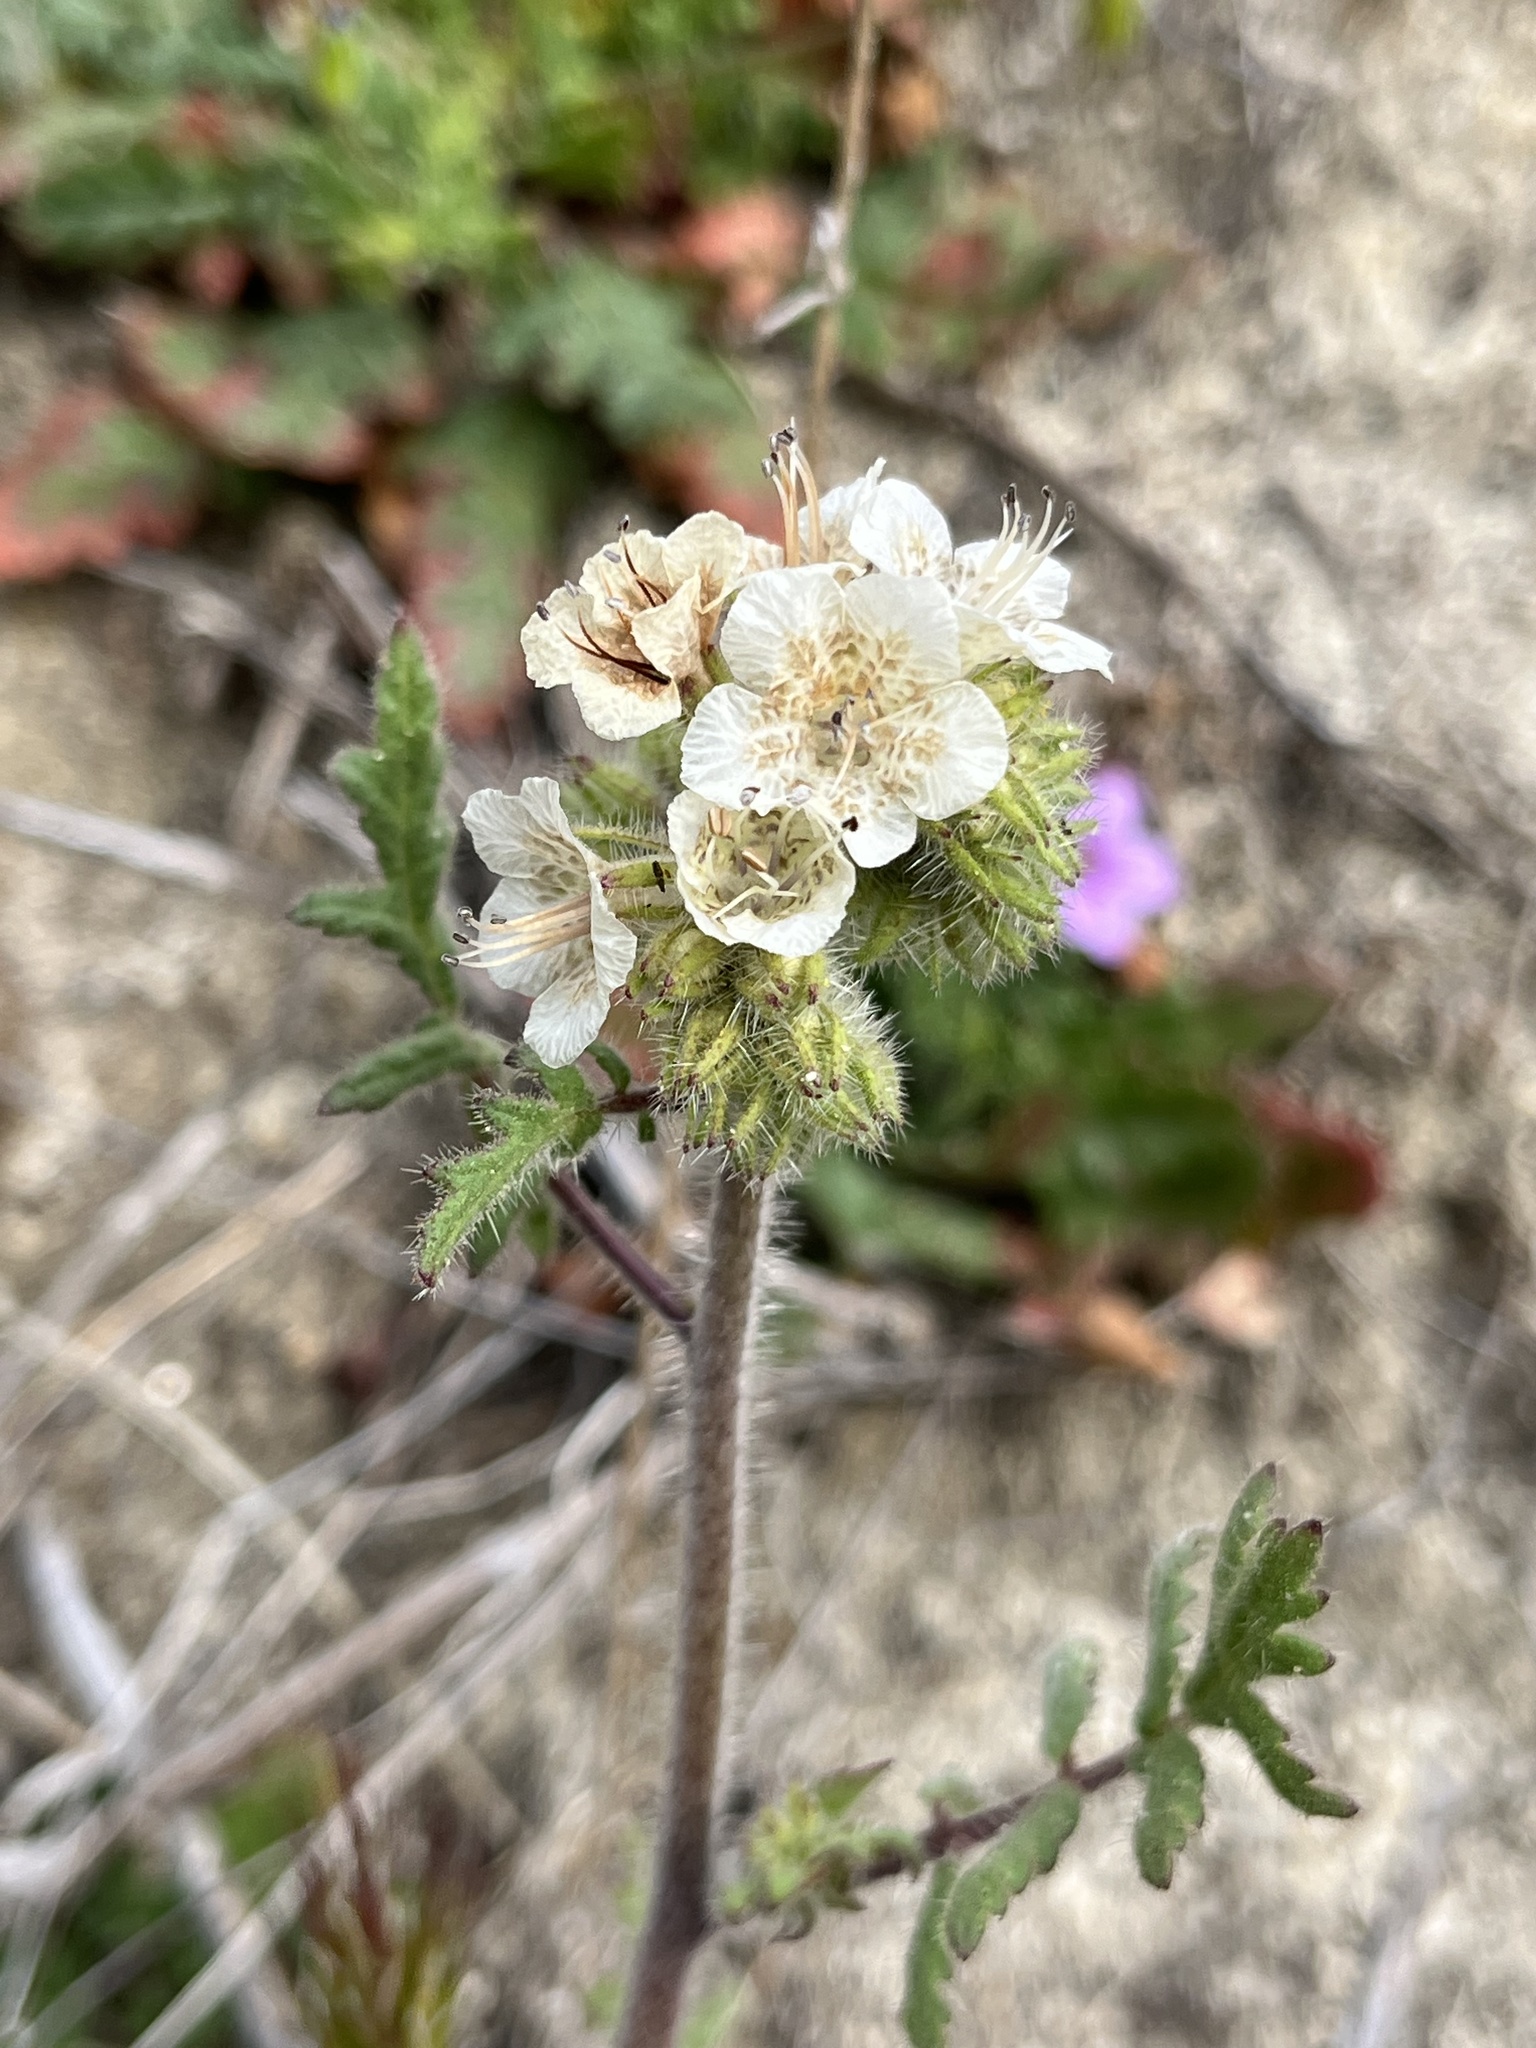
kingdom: Plantae
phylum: Tracheophyta
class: Magnoliopsida
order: Boraginales
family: Hydrophyllaceae
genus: Phacelia
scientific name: Phacelia cicutaria
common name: Caterpillar phacelia
